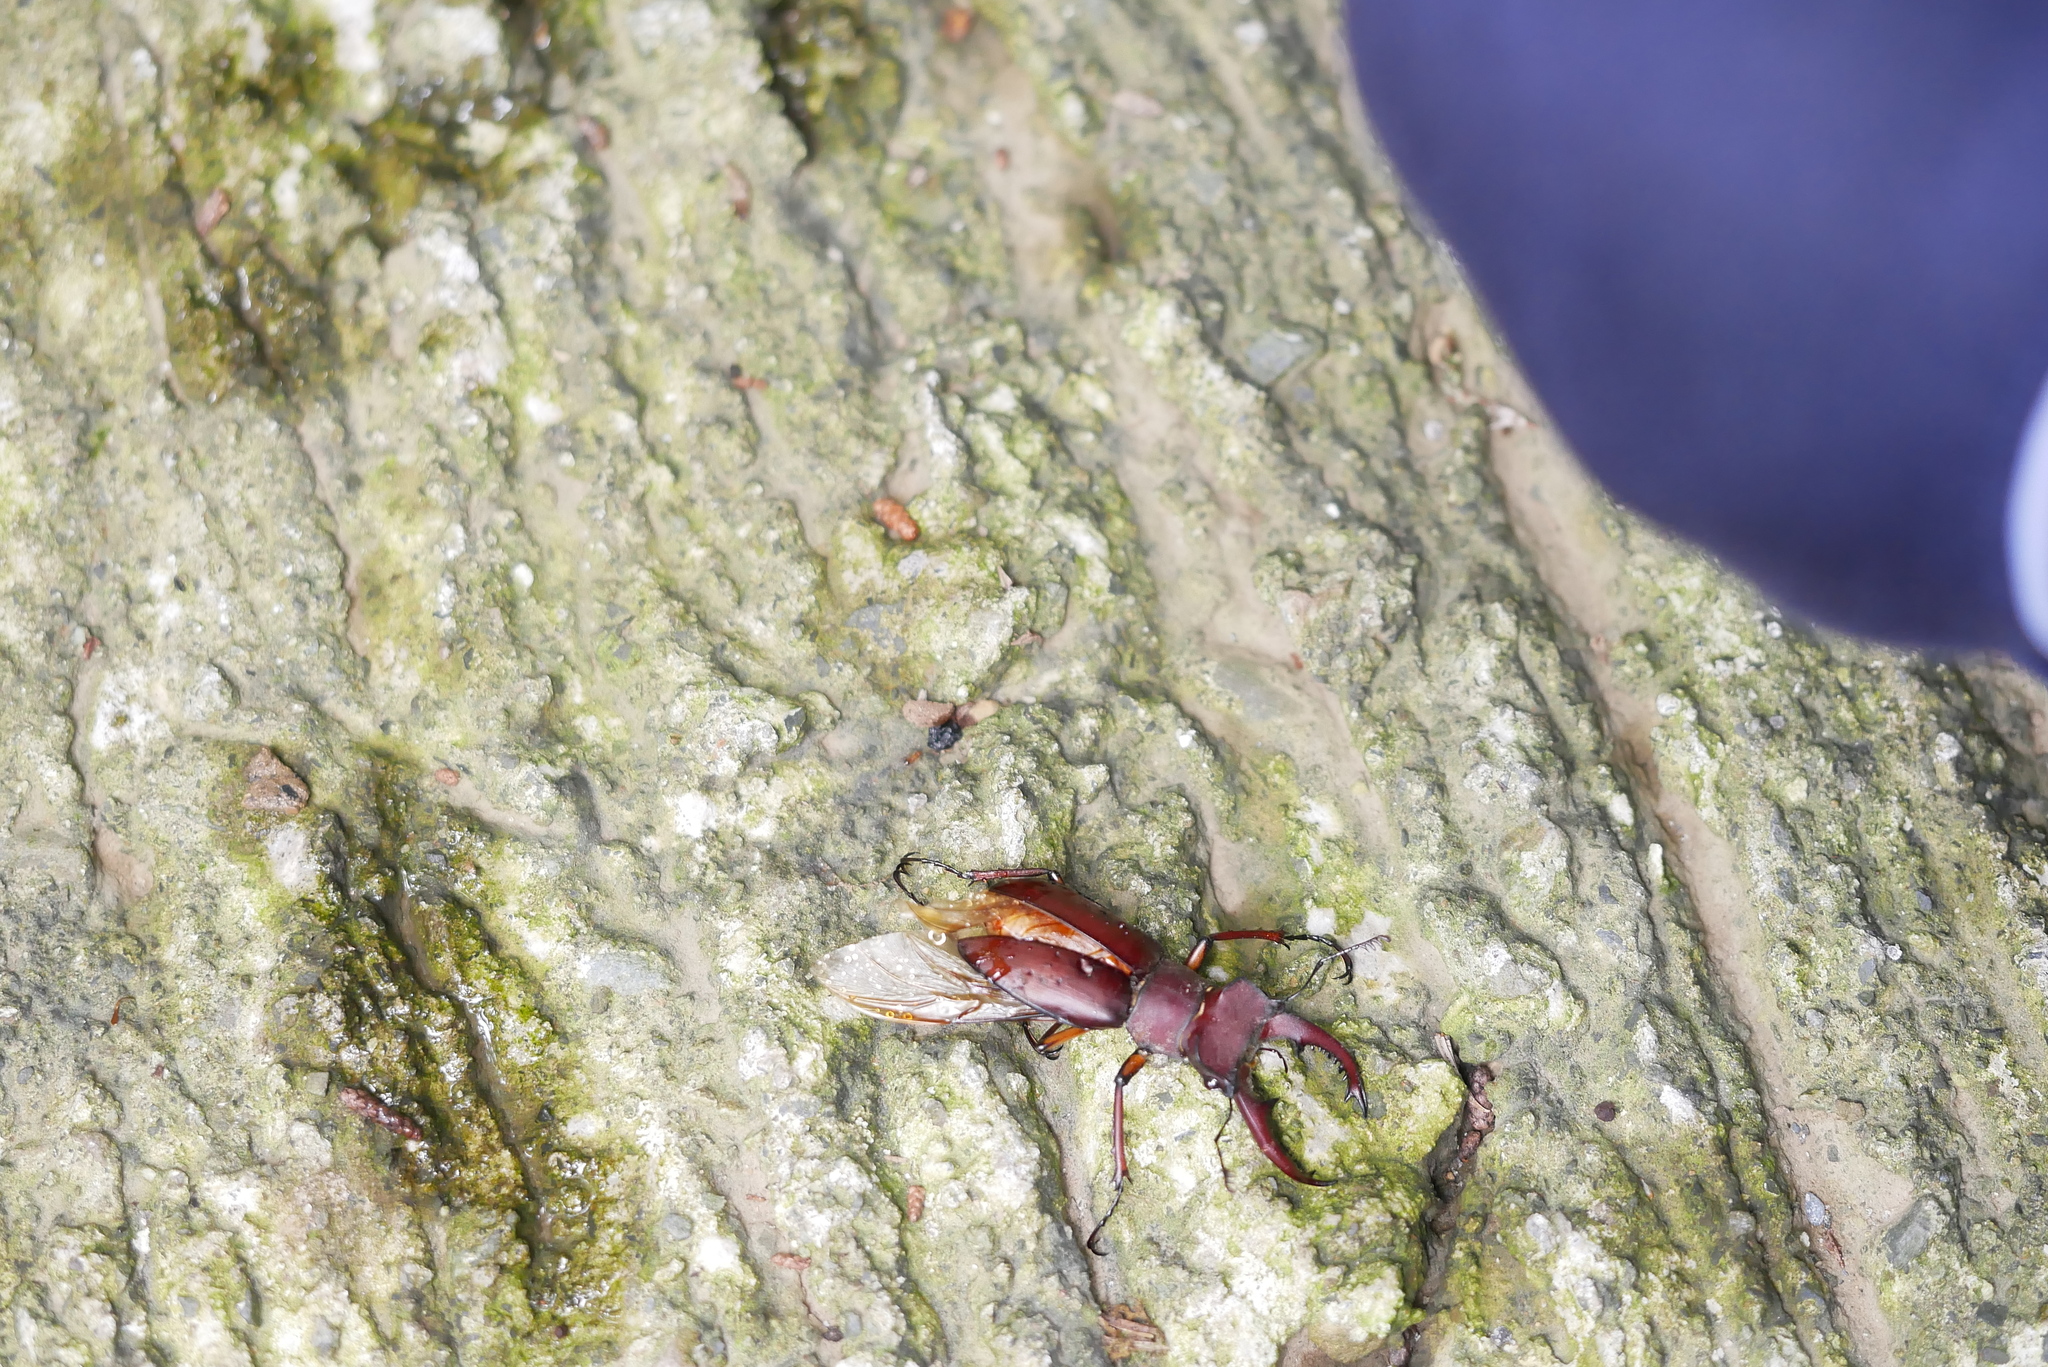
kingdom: Animalia
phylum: Arthropoda
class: Insecta
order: Coleoptera
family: Lucanidae
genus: Lucanus
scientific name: Lucanus swinhoei
